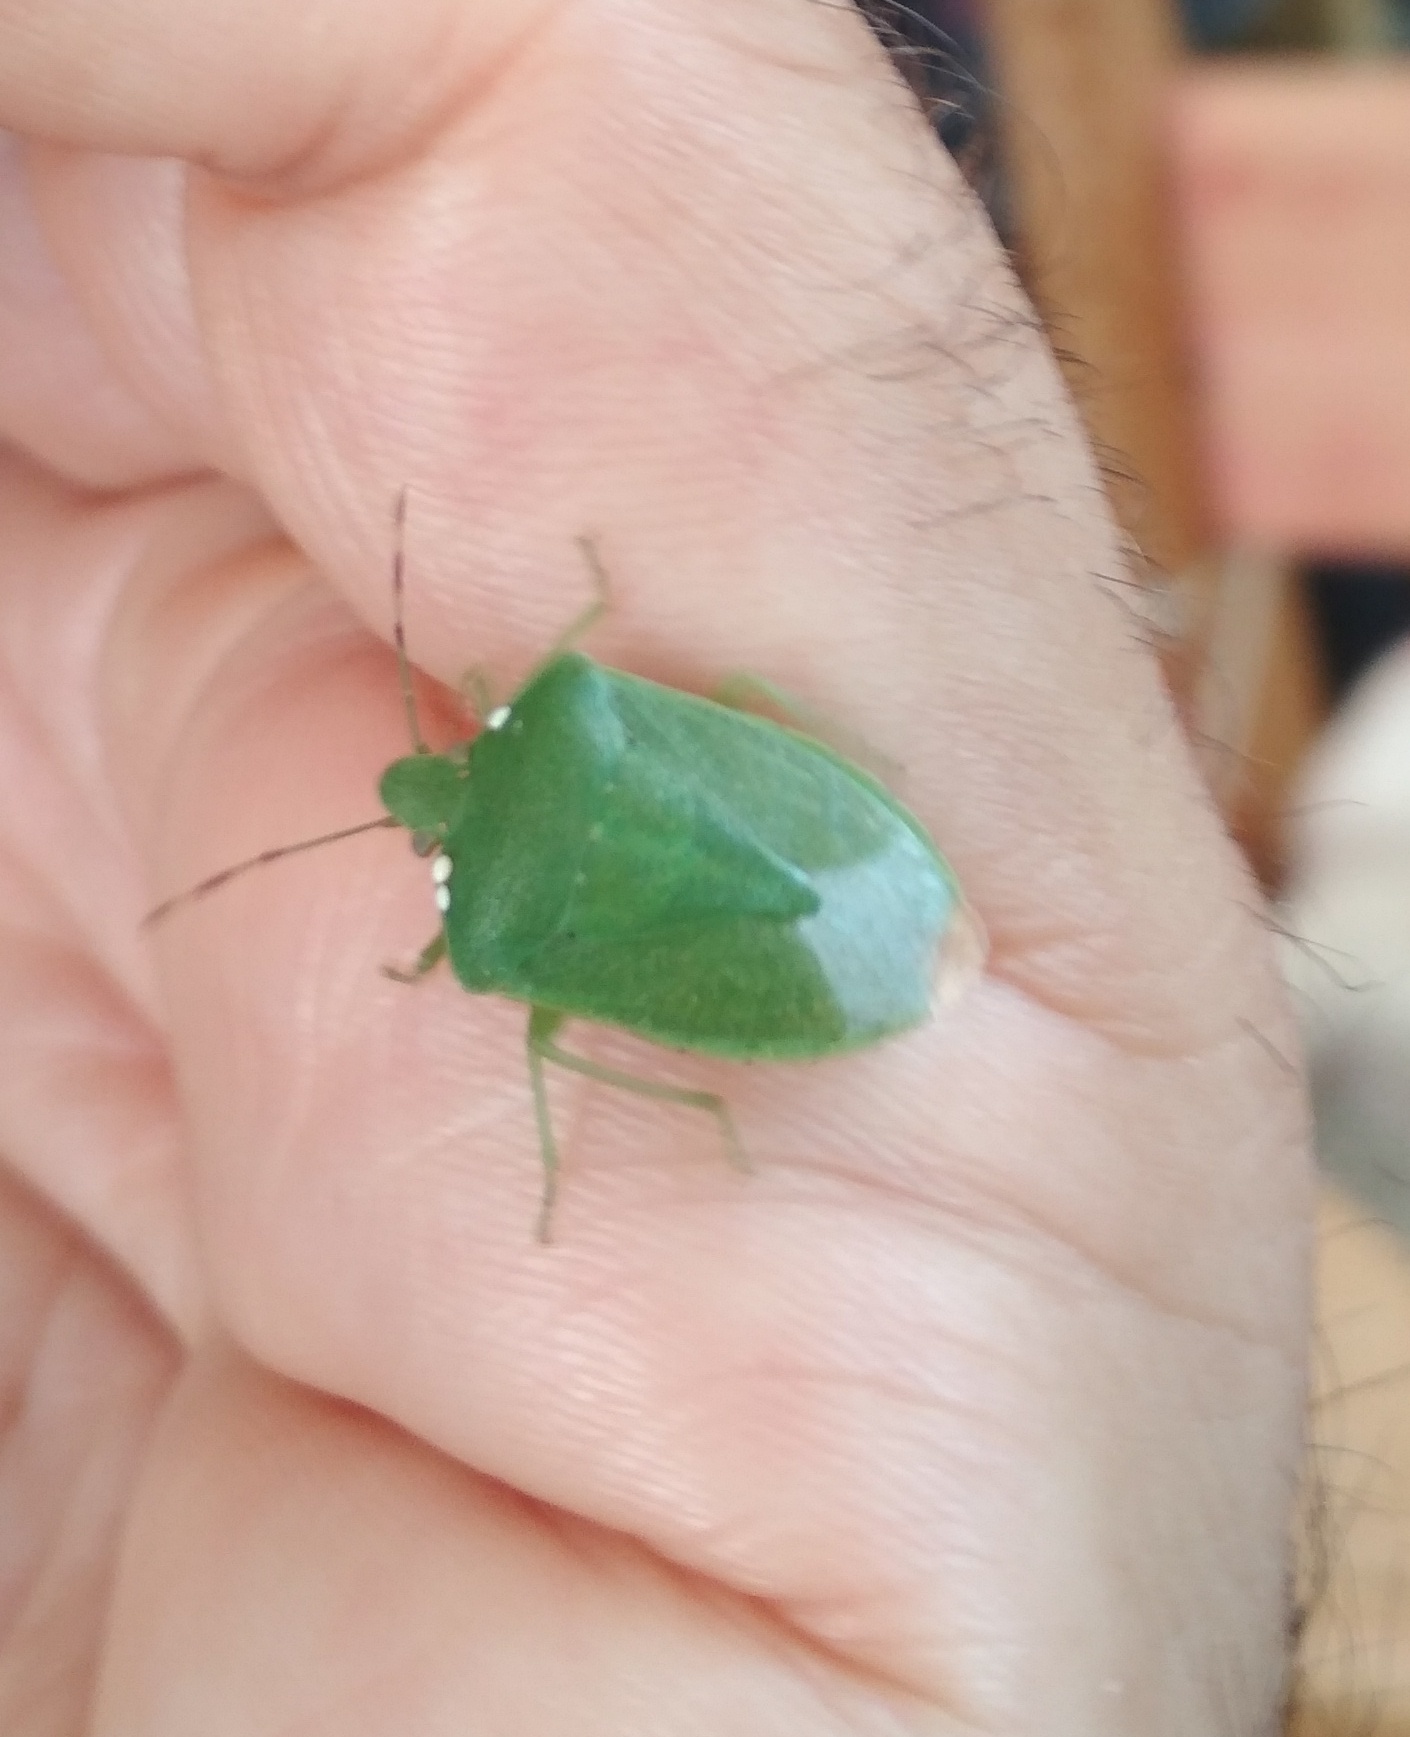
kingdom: Animalia
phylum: Arthropoda
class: Insecta
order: Hemiptera
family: Pentatomidae
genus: Nezara
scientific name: Nezara viridula
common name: Southern green stink bug
